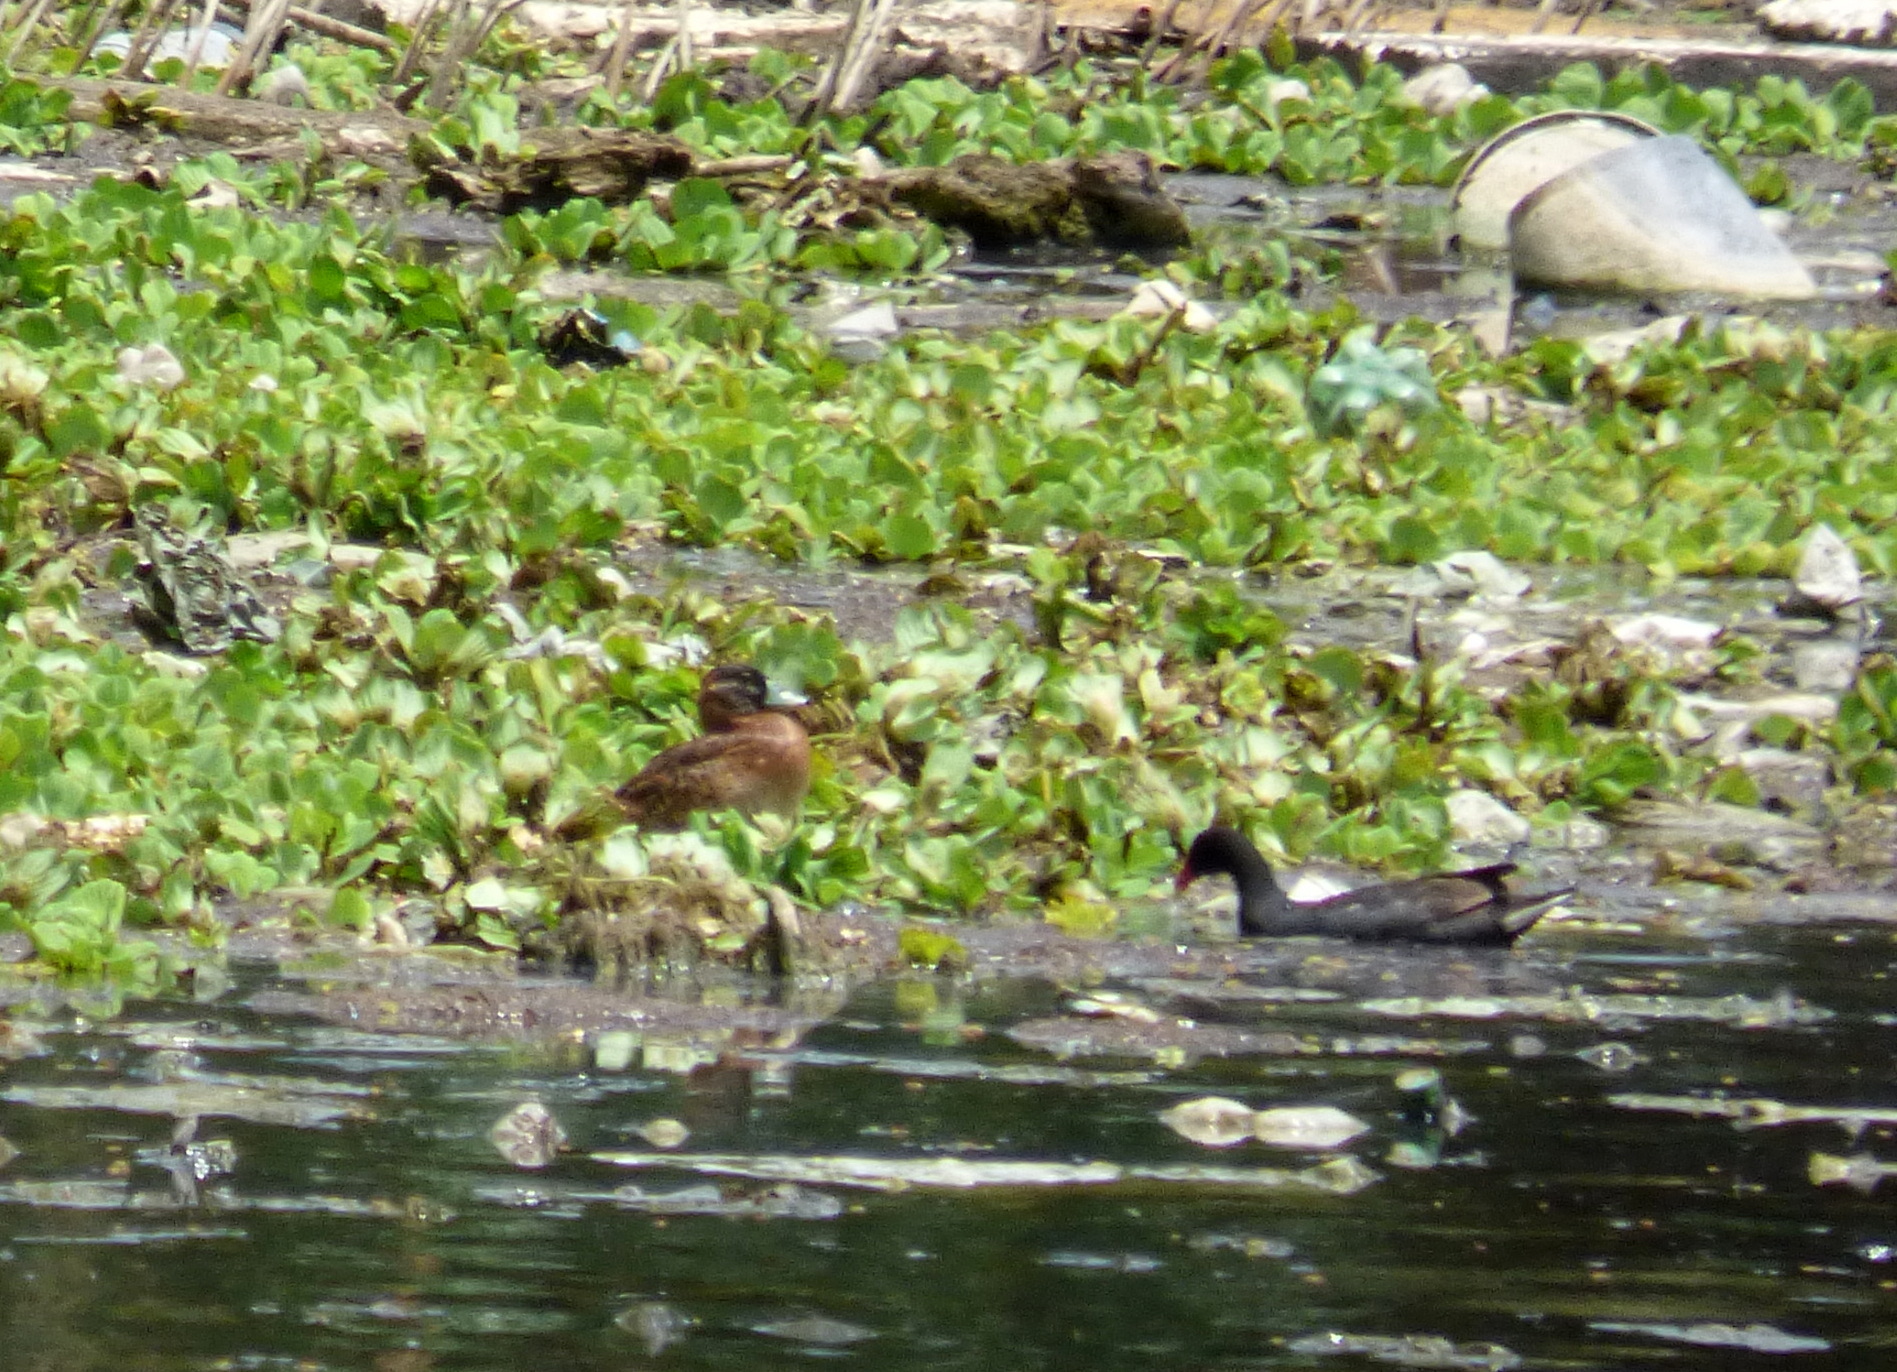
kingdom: Animalia
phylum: Chordata
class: Aves
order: Anseriformes
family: Anatidae
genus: Nomonyx
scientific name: Nomonyx dominicus
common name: Masked duck
